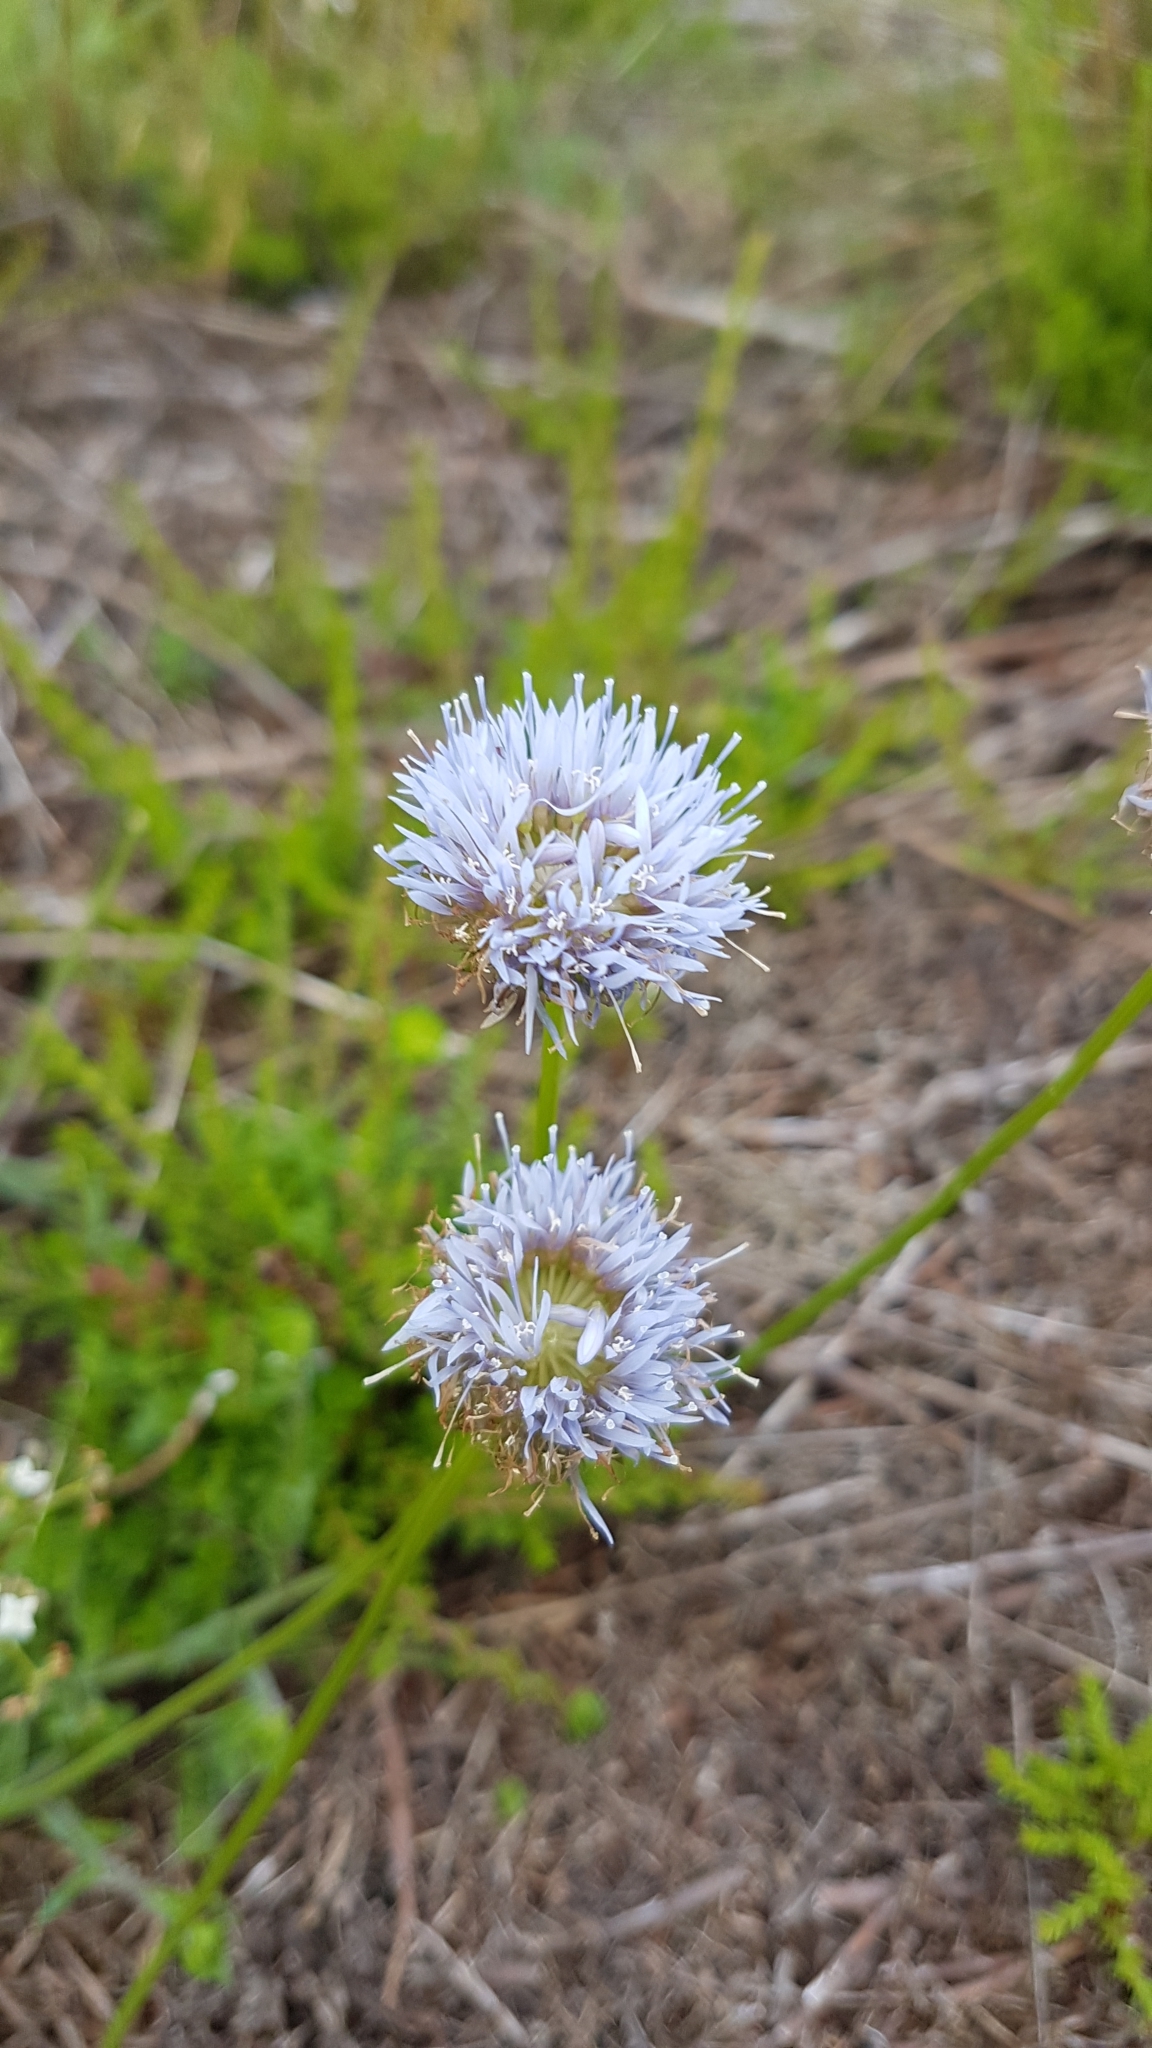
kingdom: Plantae
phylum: Tracheophyta
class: Magnoliopsida
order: Asterales
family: Campanulaceae
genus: Jasione
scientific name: Jasione montana
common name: Sheep's-bit
